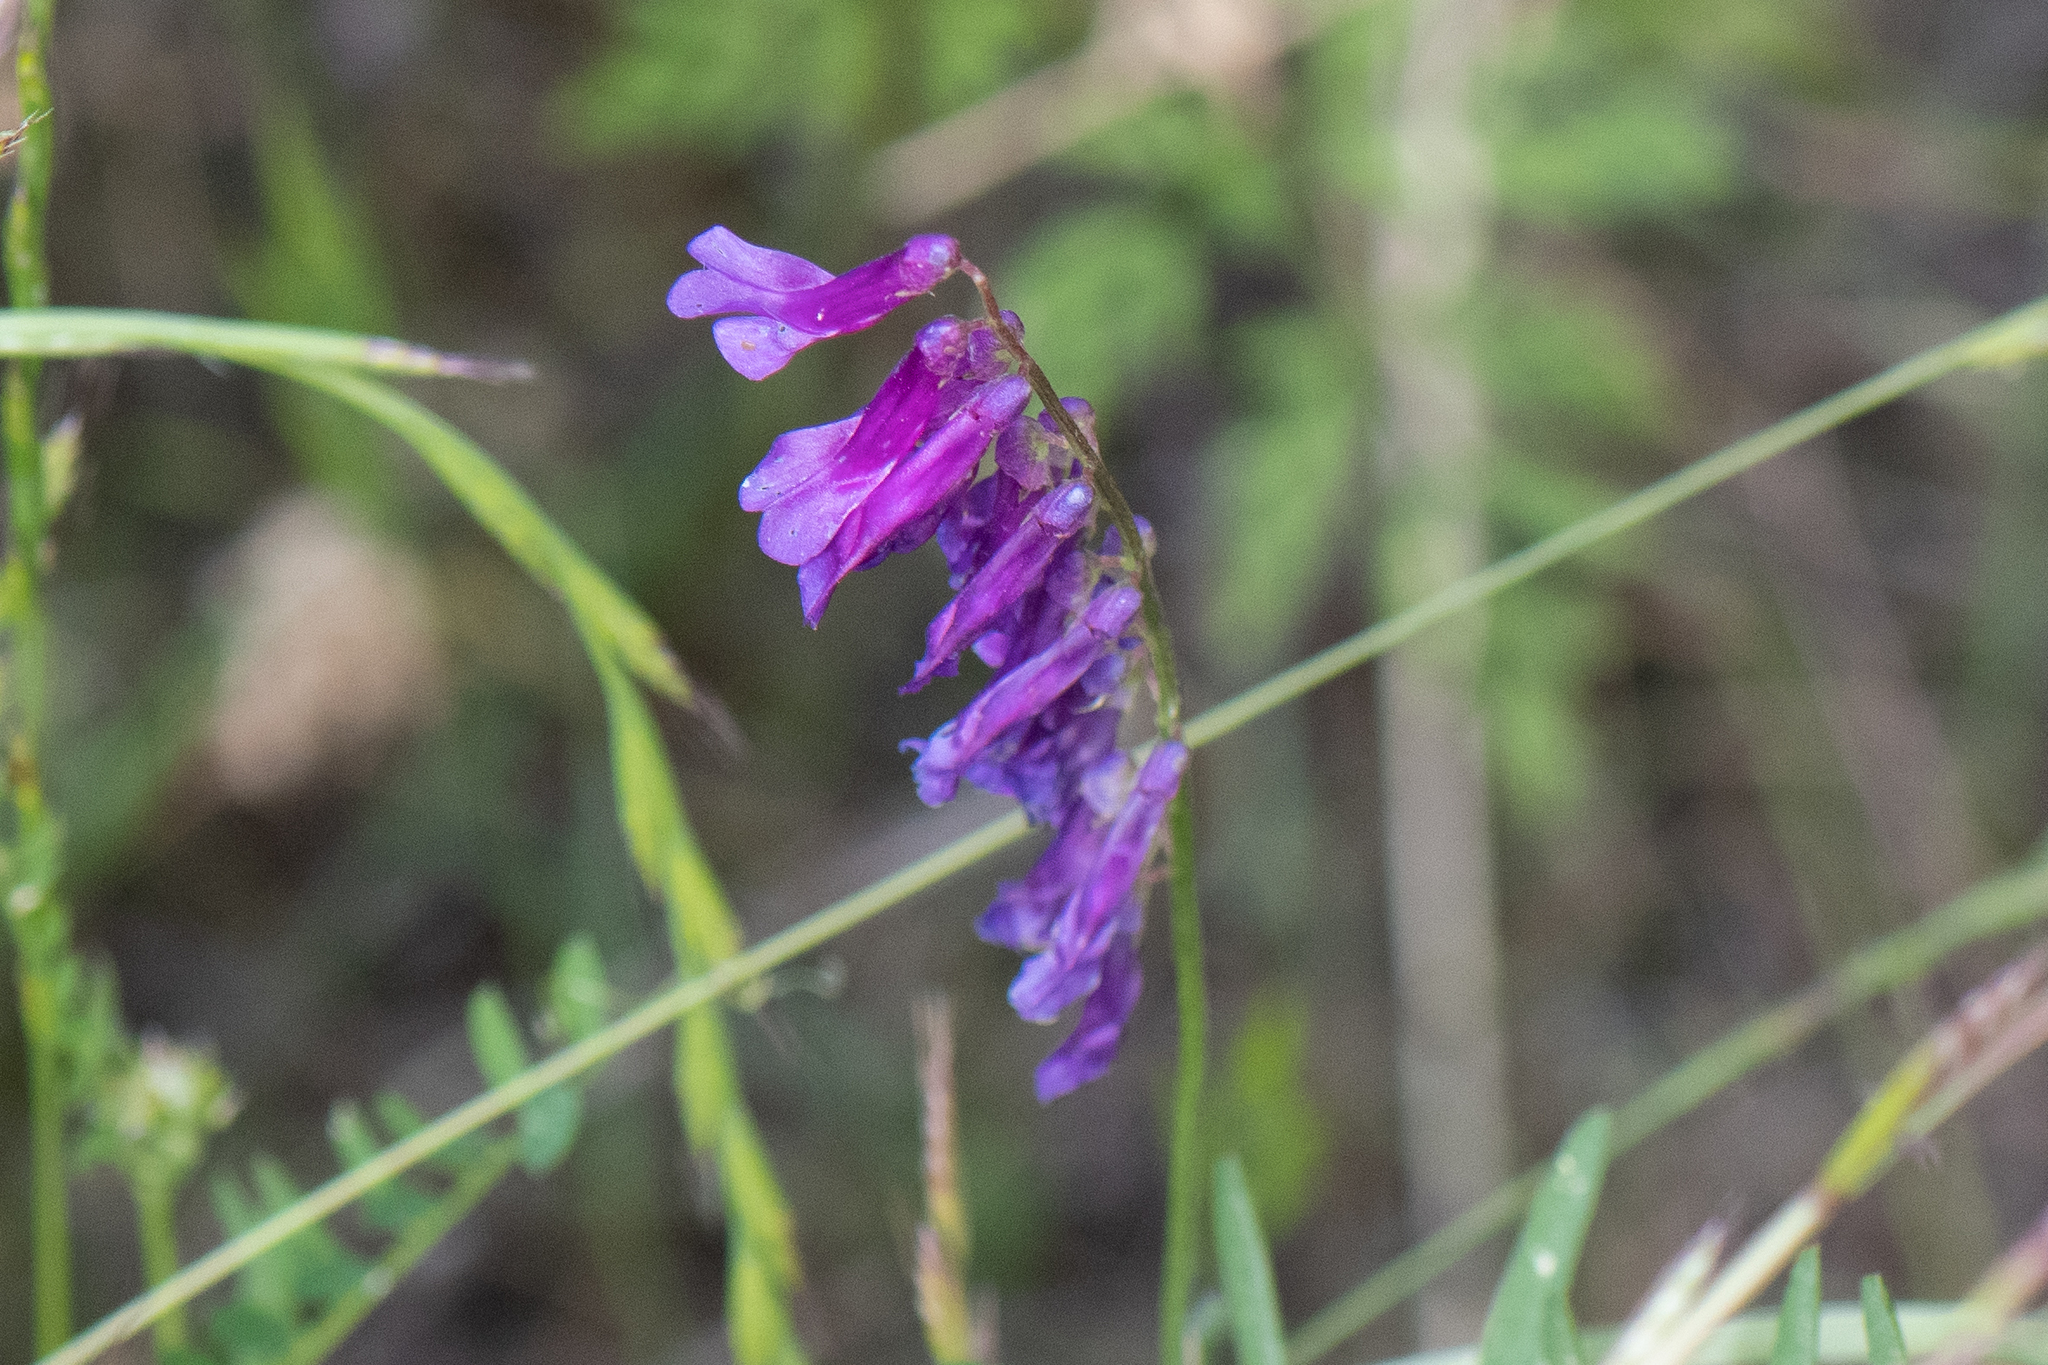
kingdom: Plantae
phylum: Tracheophyta
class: Magnoliopsida
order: Fabales
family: Fabaceae
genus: Vicia
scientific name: Vicia villosa
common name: Fodder vetch
